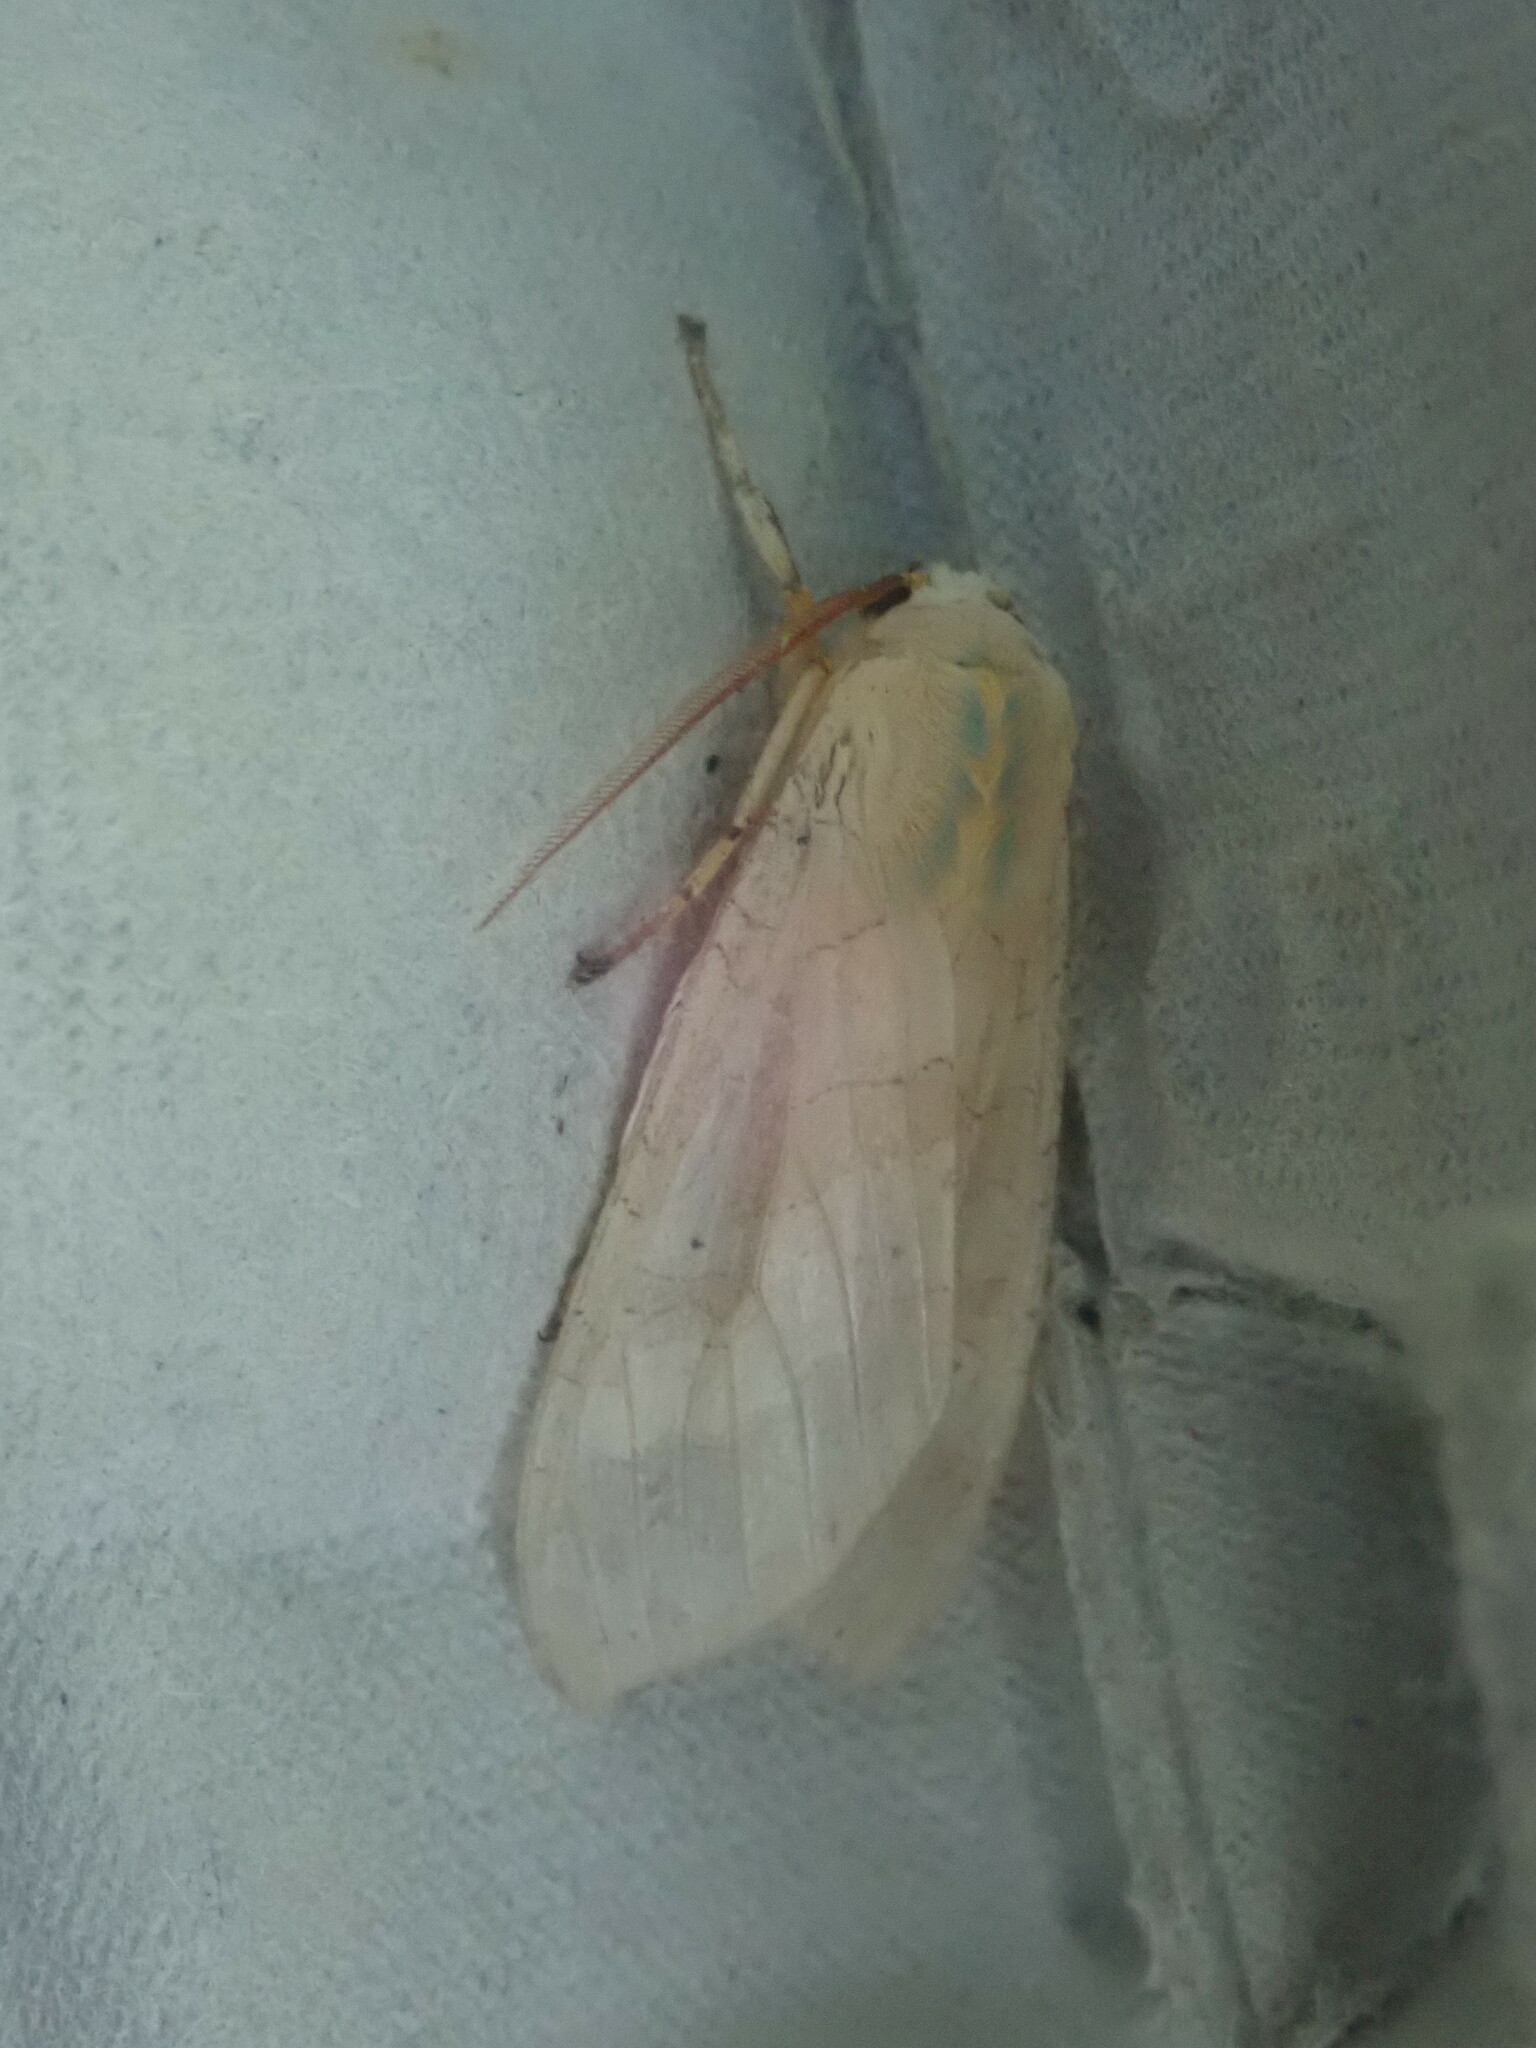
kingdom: Animalia
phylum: Arthropoda
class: Insecta
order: Lepidoptera
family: Erebidae
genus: Halysidota
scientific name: Halysidota
